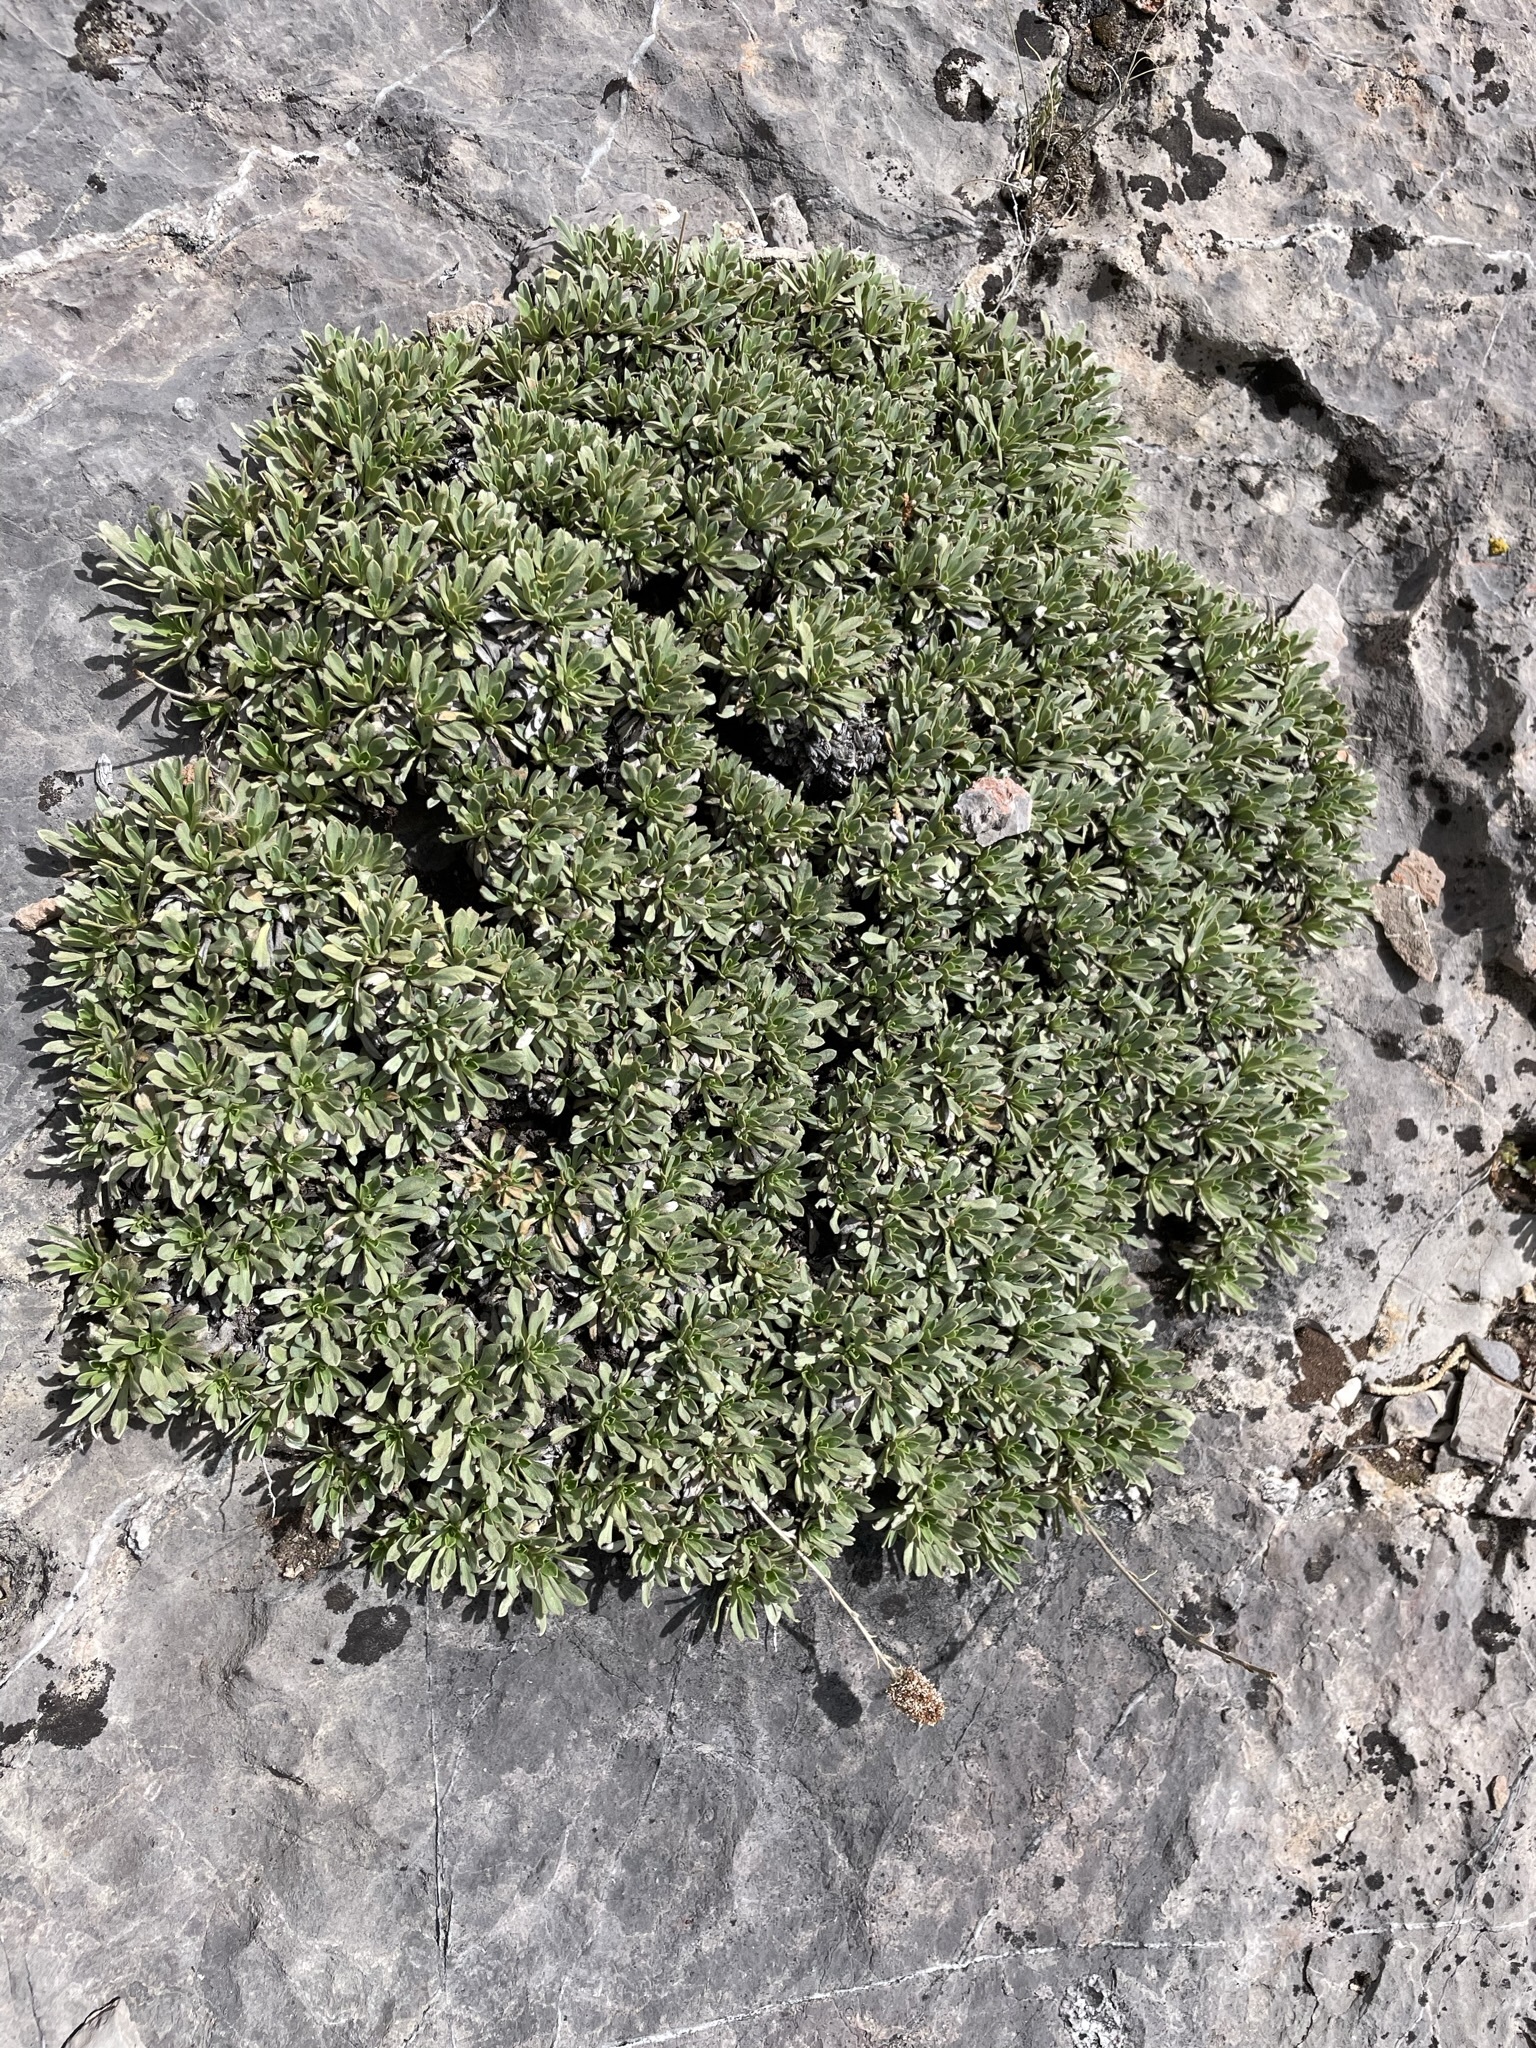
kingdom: Plantae
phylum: Tracheophyta
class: Magnoliopsida
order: Rosales
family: Rosaceae
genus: Petrophytum
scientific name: Petrophytum caespitosum
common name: Mat rockspirea
